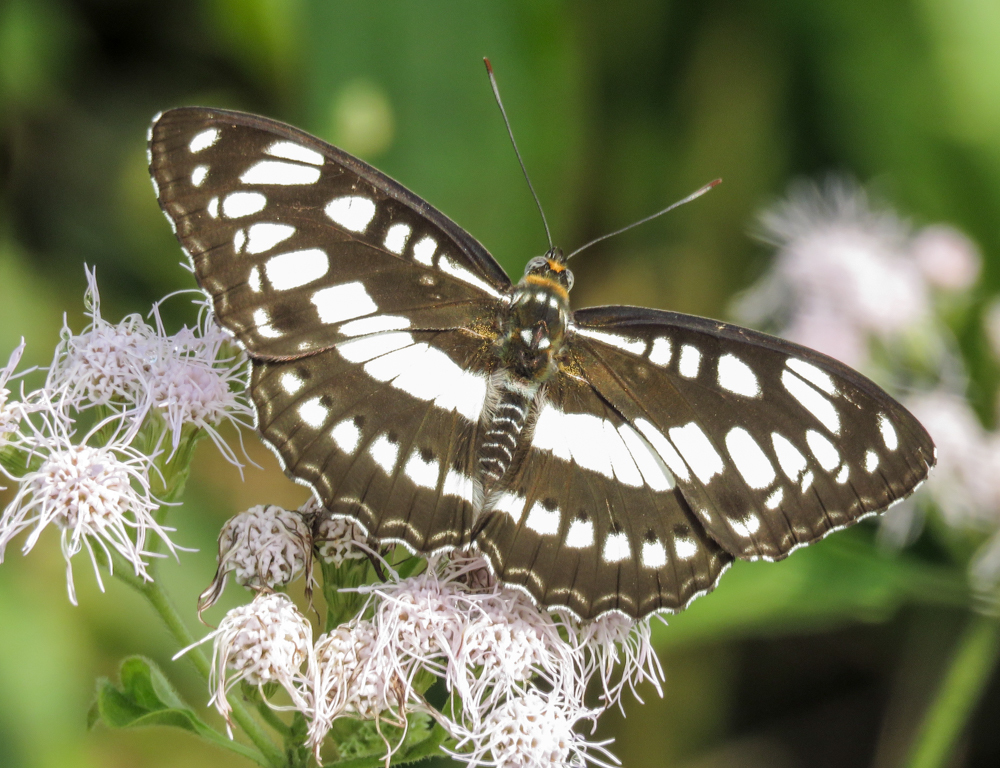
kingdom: Animalia
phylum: Arthropoda
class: Insecta
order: Lepidoptera
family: Nymphalidae
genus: Parathyma
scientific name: Parathyma perius
